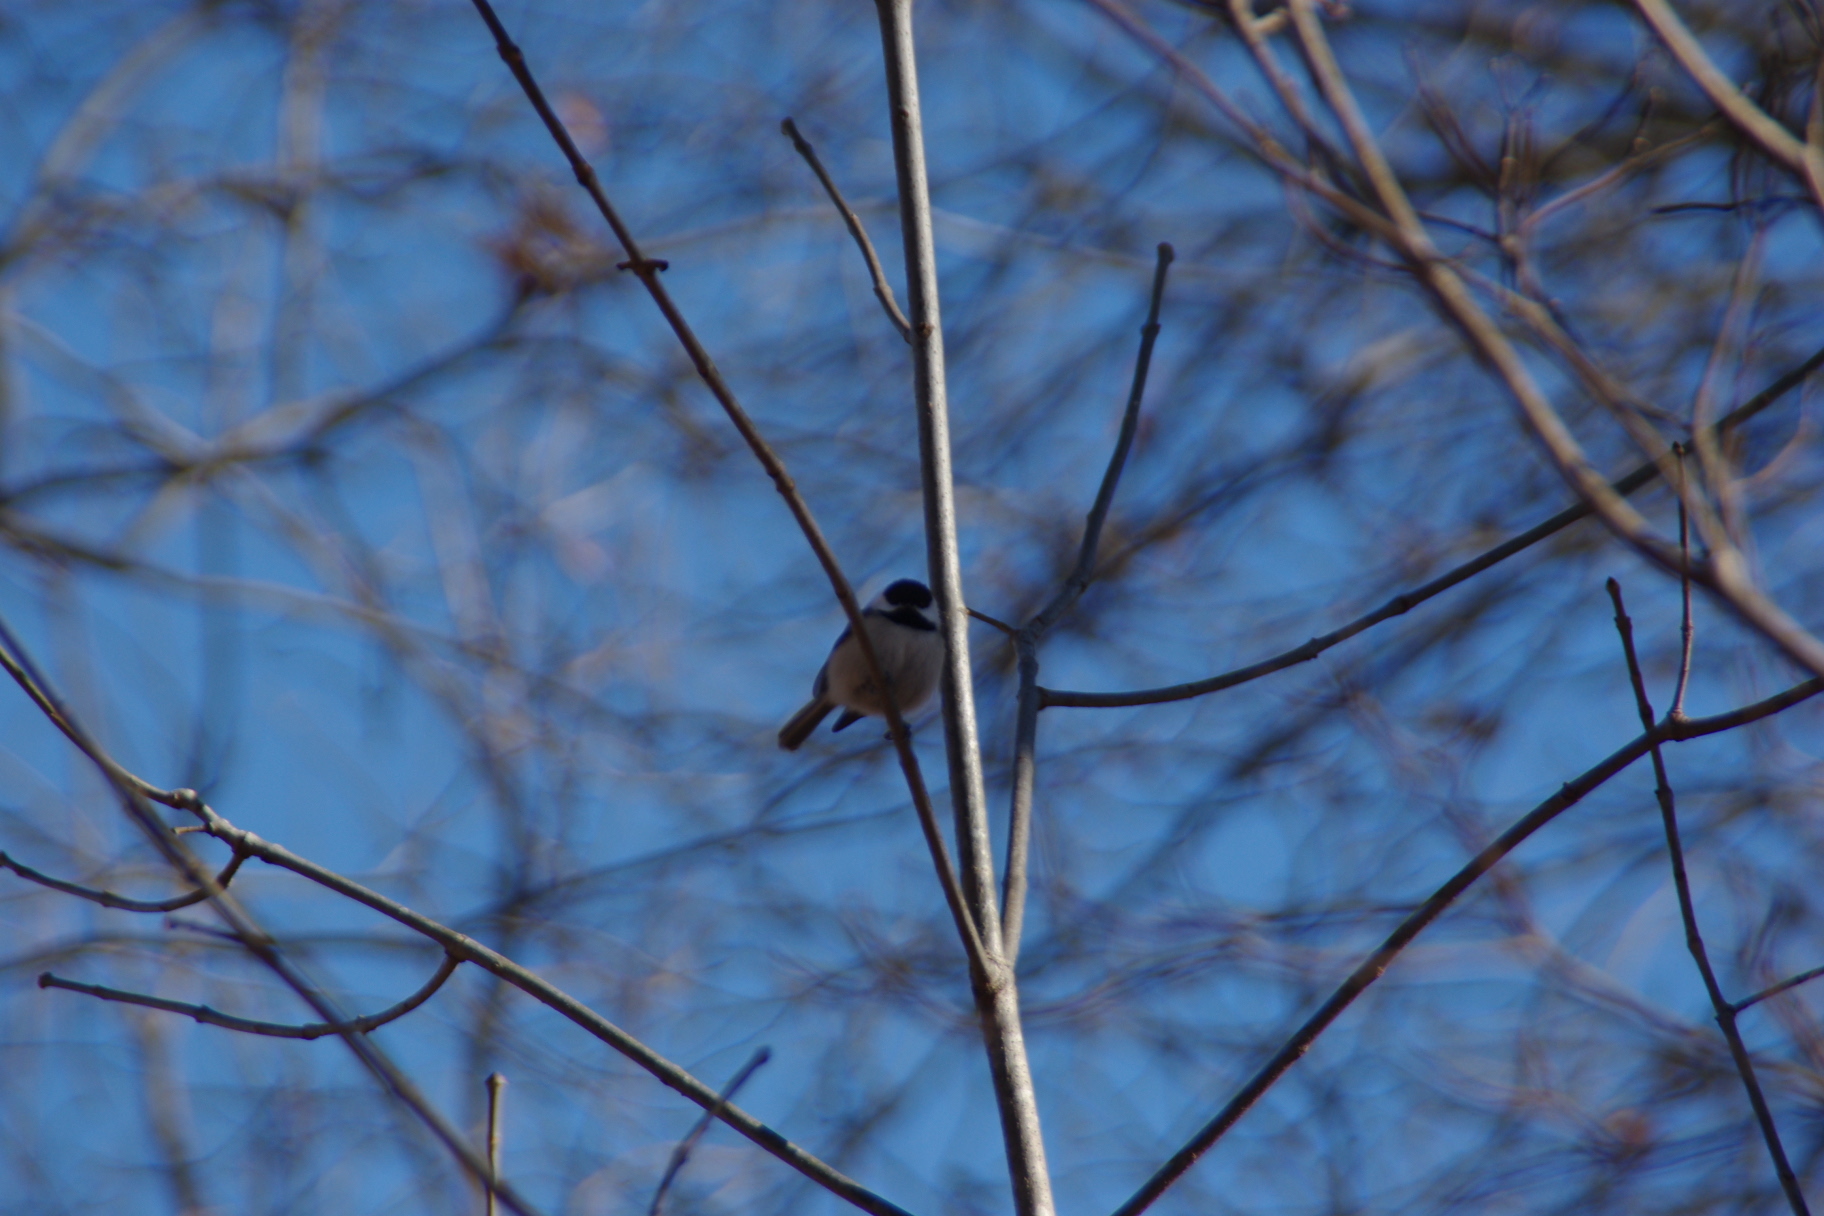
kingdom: Animalia
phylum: Chordata
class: Aves
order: Passeriformes
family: Paridae
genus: Poecile
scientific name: Poecile carolinensis
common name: Carolina chickadee
